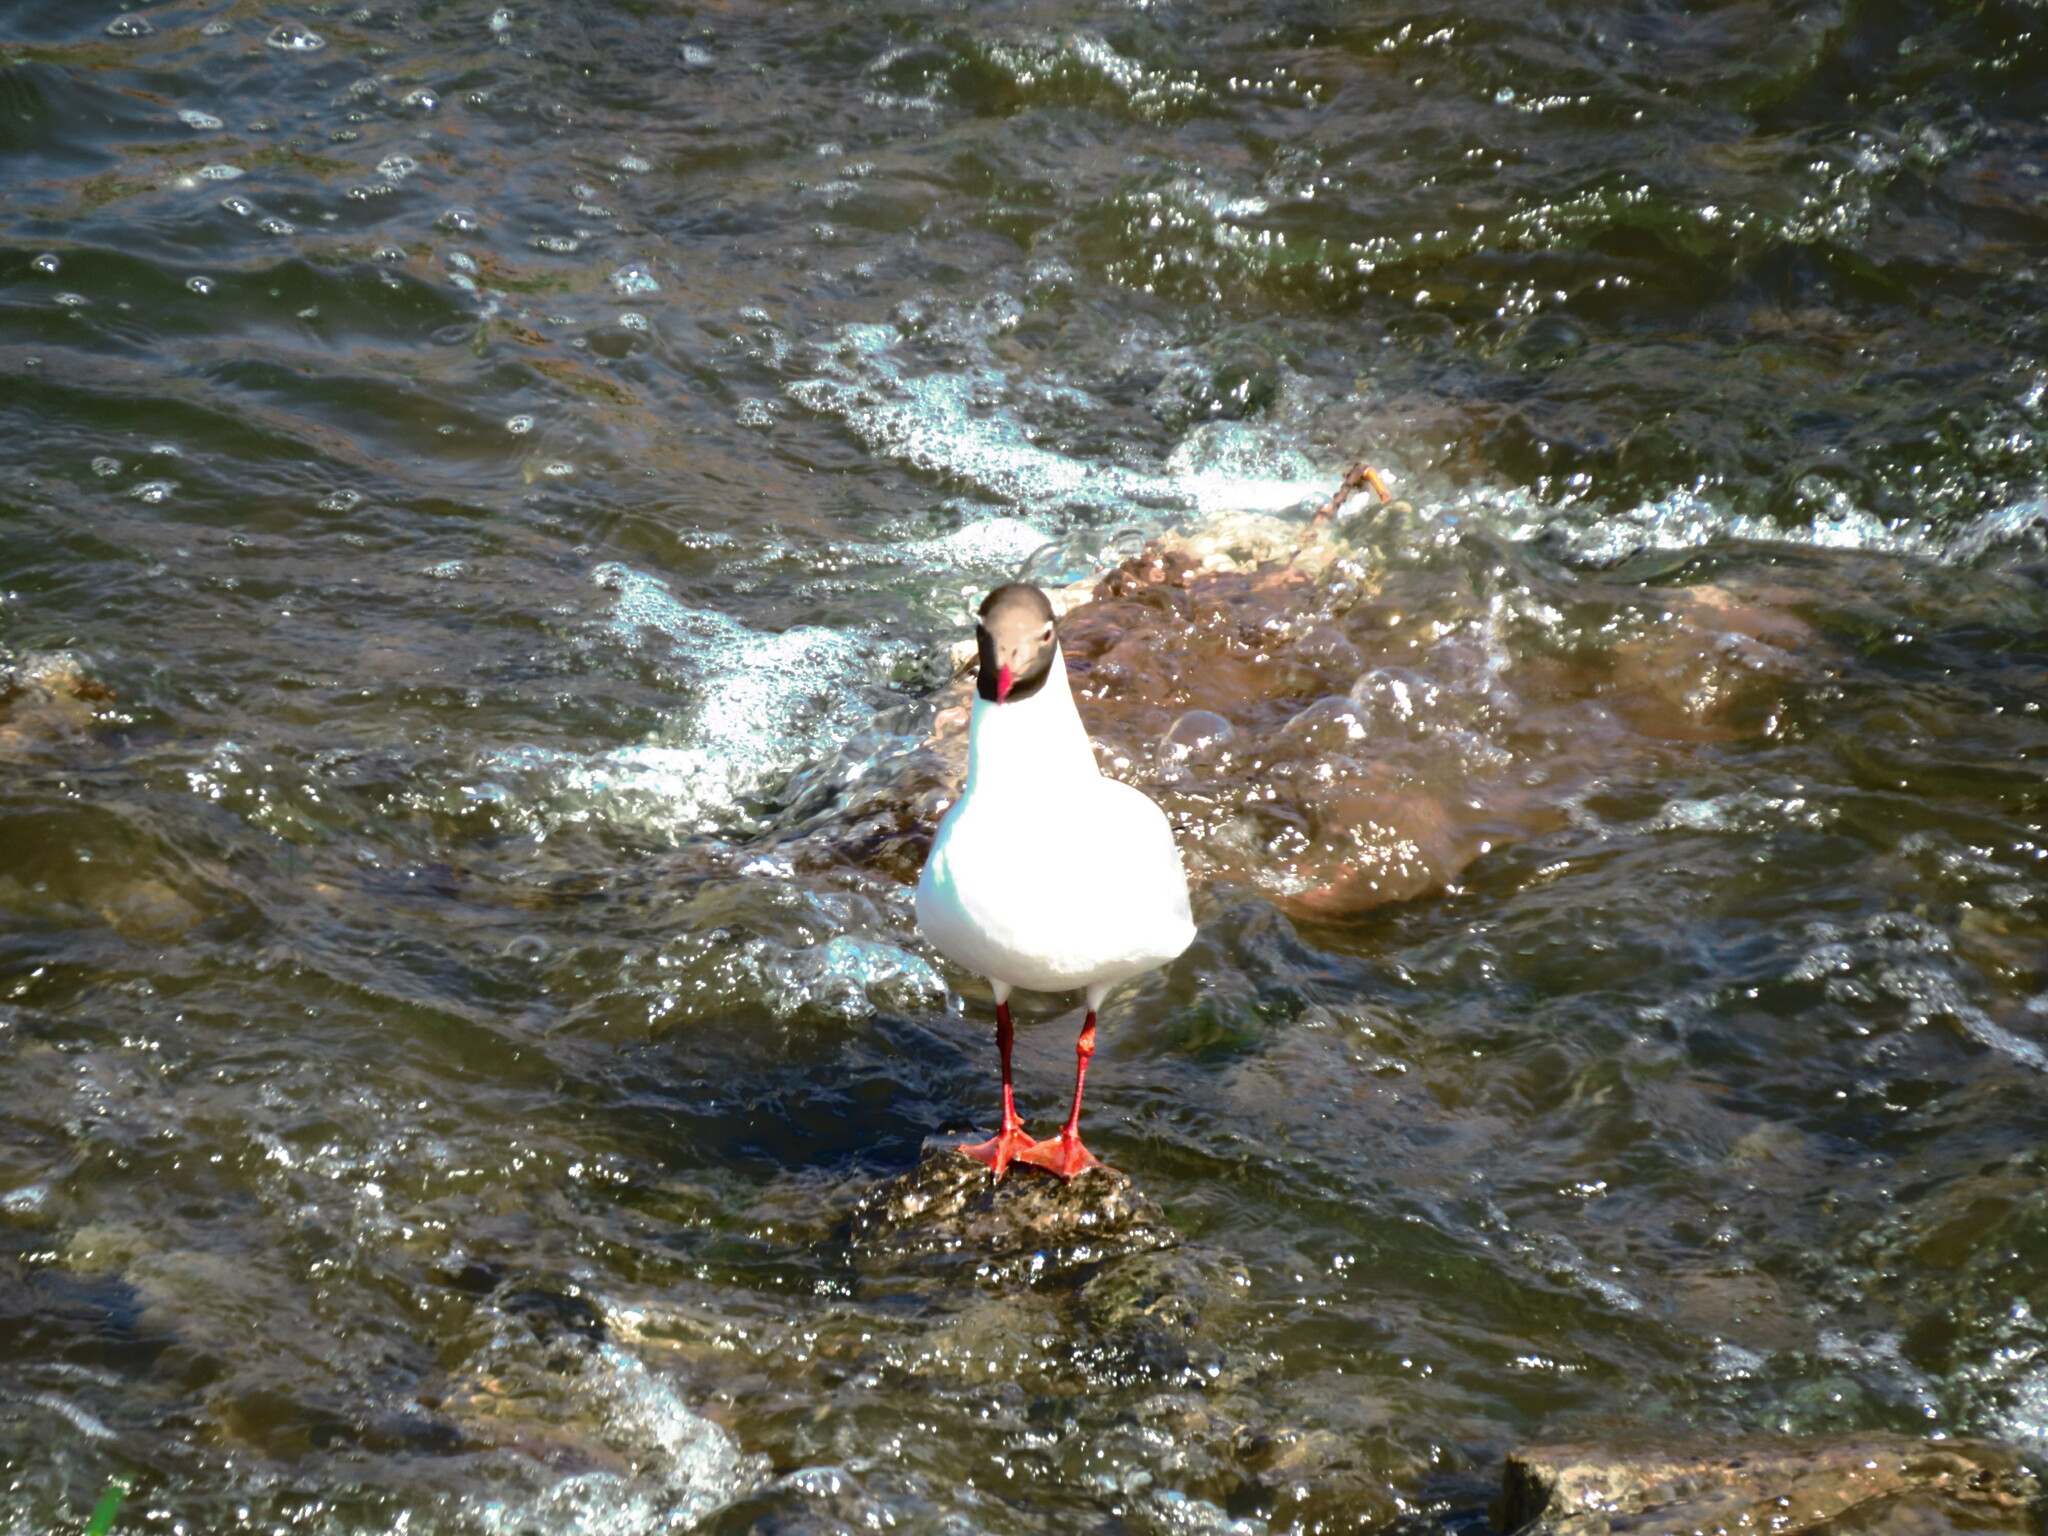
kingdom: Animalia
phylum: Chordata
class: Aves
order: Charadriiformes
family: Laridae
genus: Chroicocephalus
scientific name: Chroicocephalus ridibundus
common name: Black-headed gull
